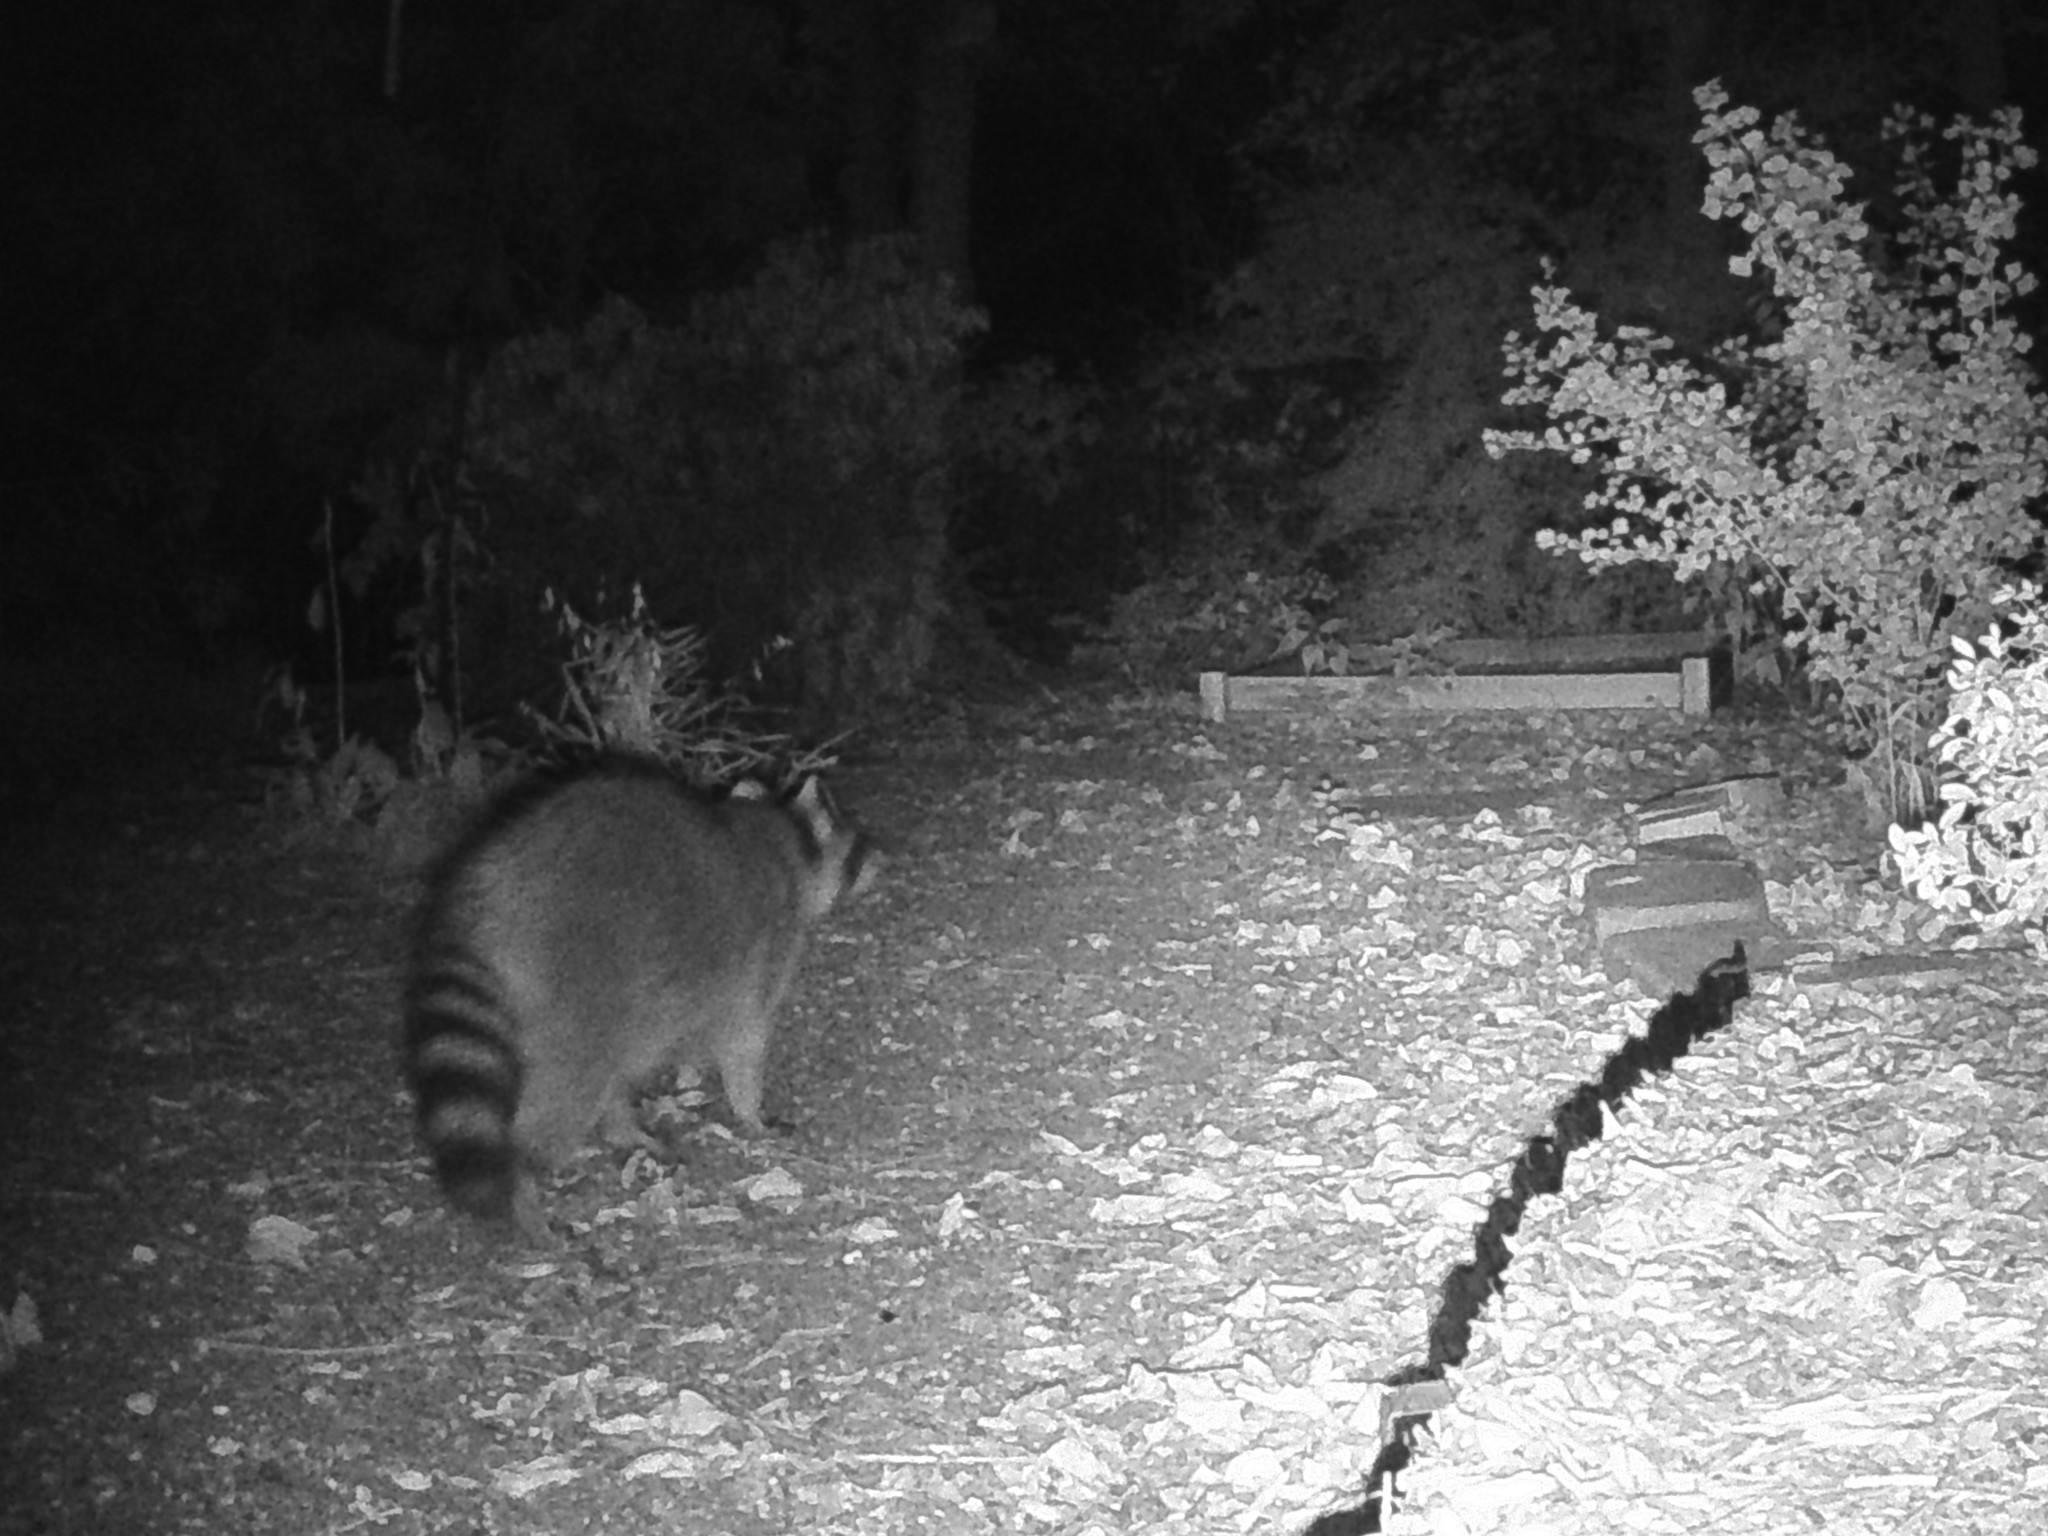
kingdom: Animalia
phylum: Chordata
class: Mammalia
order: Carnivora
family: Procyonidae
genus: Procyon
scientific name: Procyon lotor
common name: Raccoon
